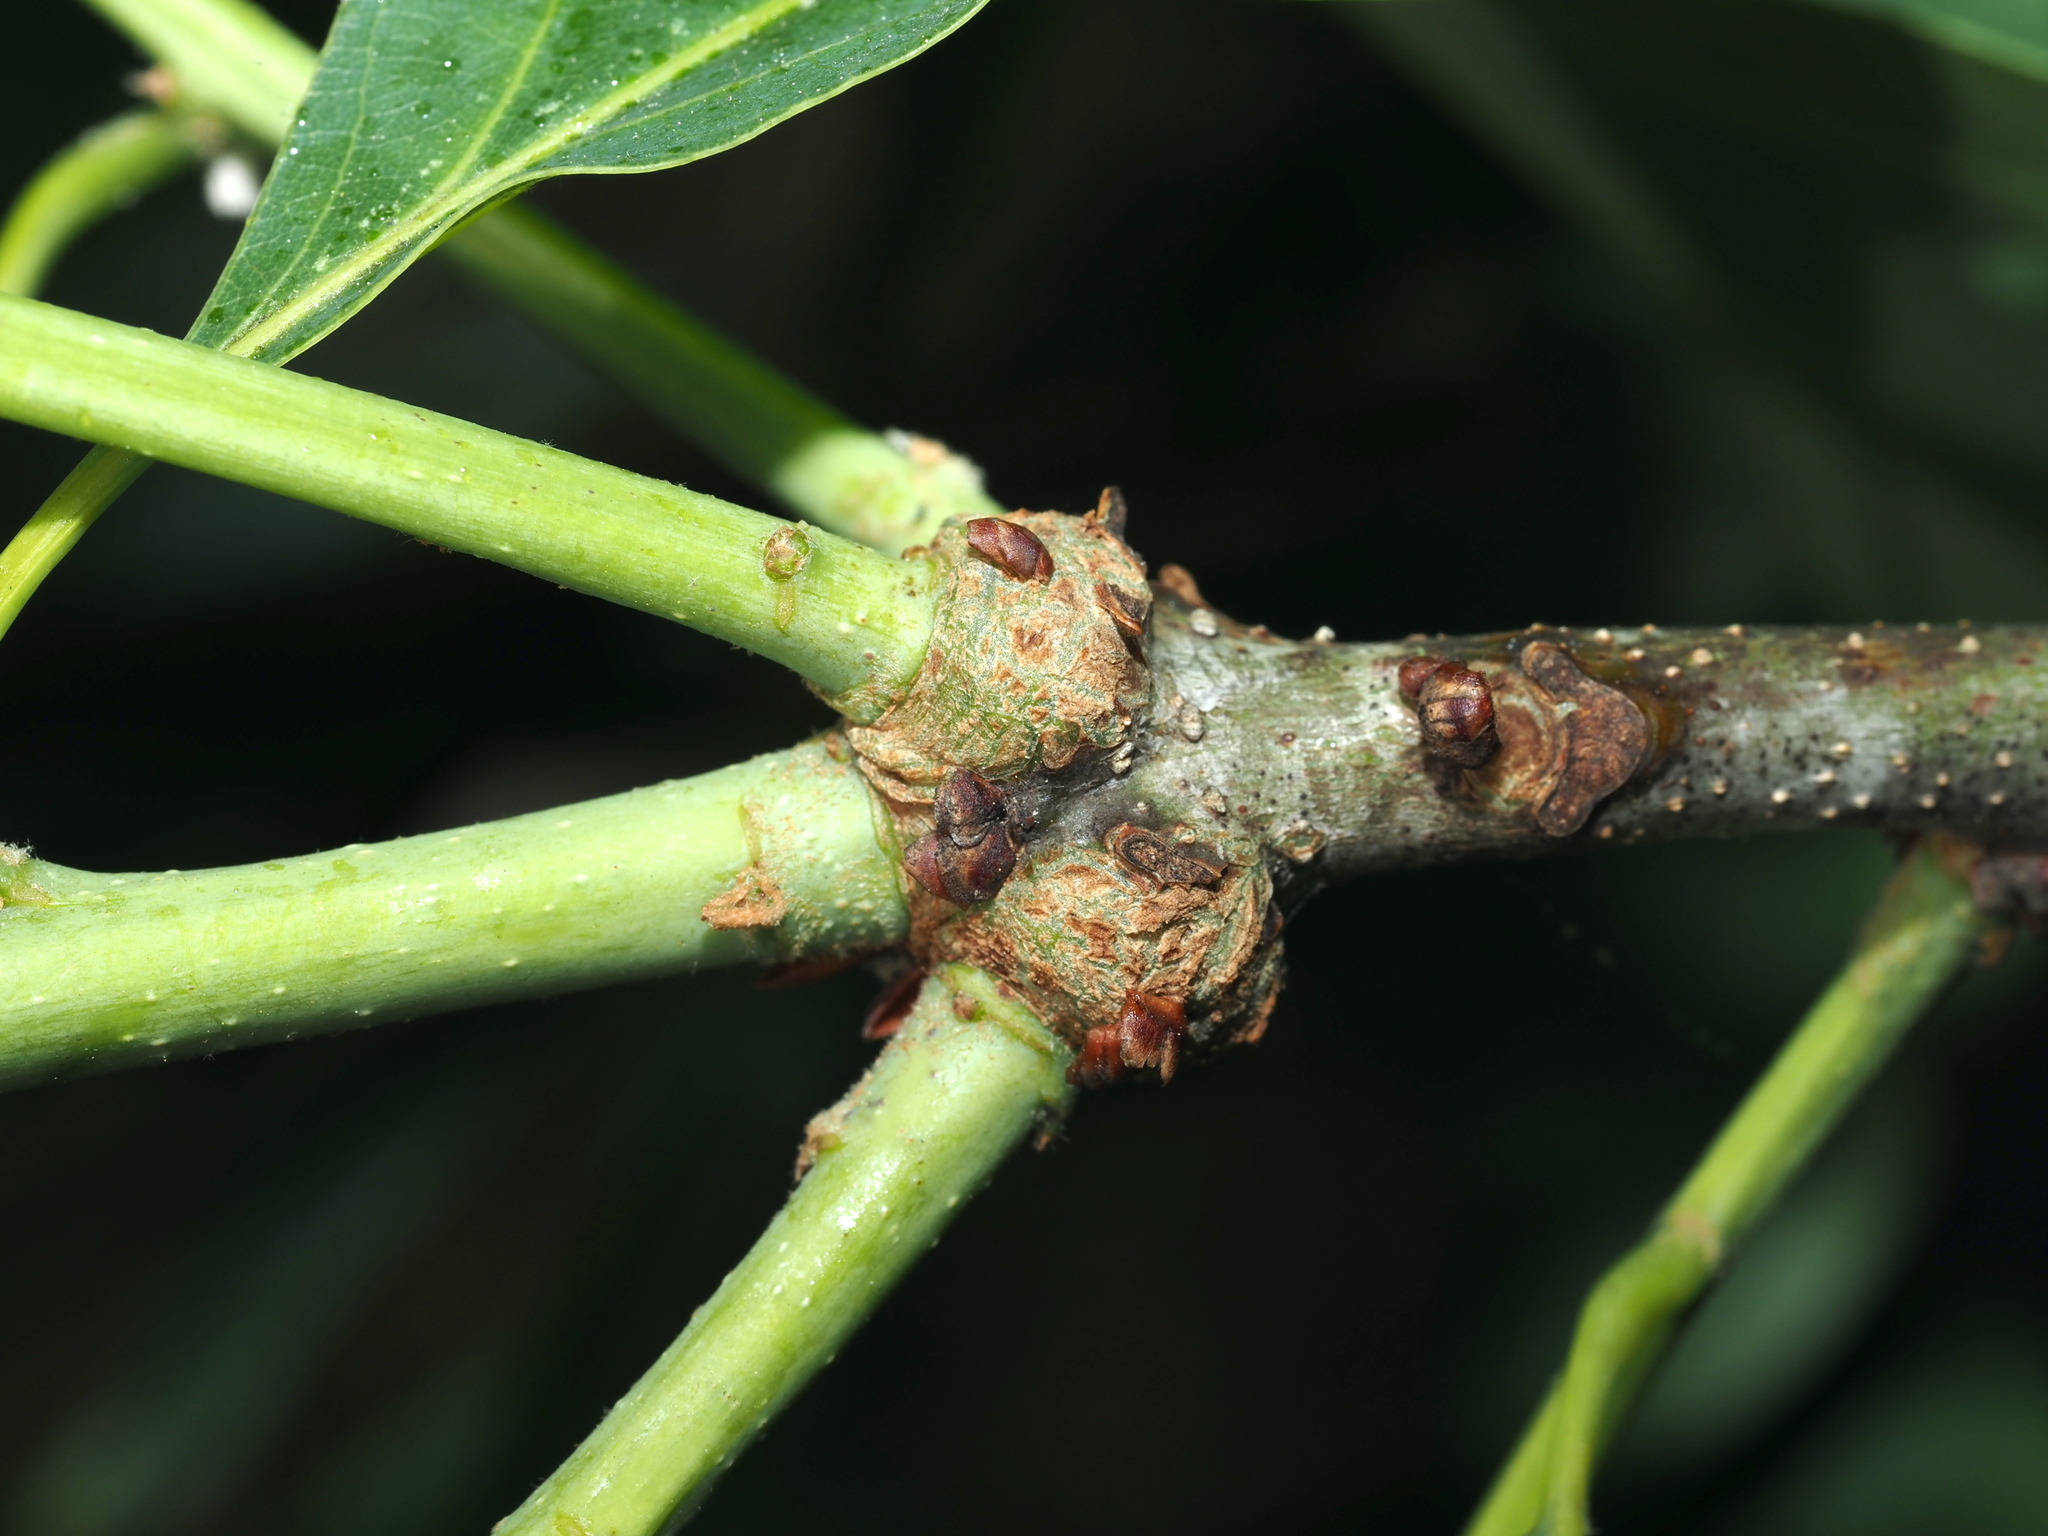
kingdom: Animalia
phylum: Arthropoda
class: Insecta
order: Hymenoptera
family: Cynipidae
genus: Loxaulus
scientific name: Loxaulus
